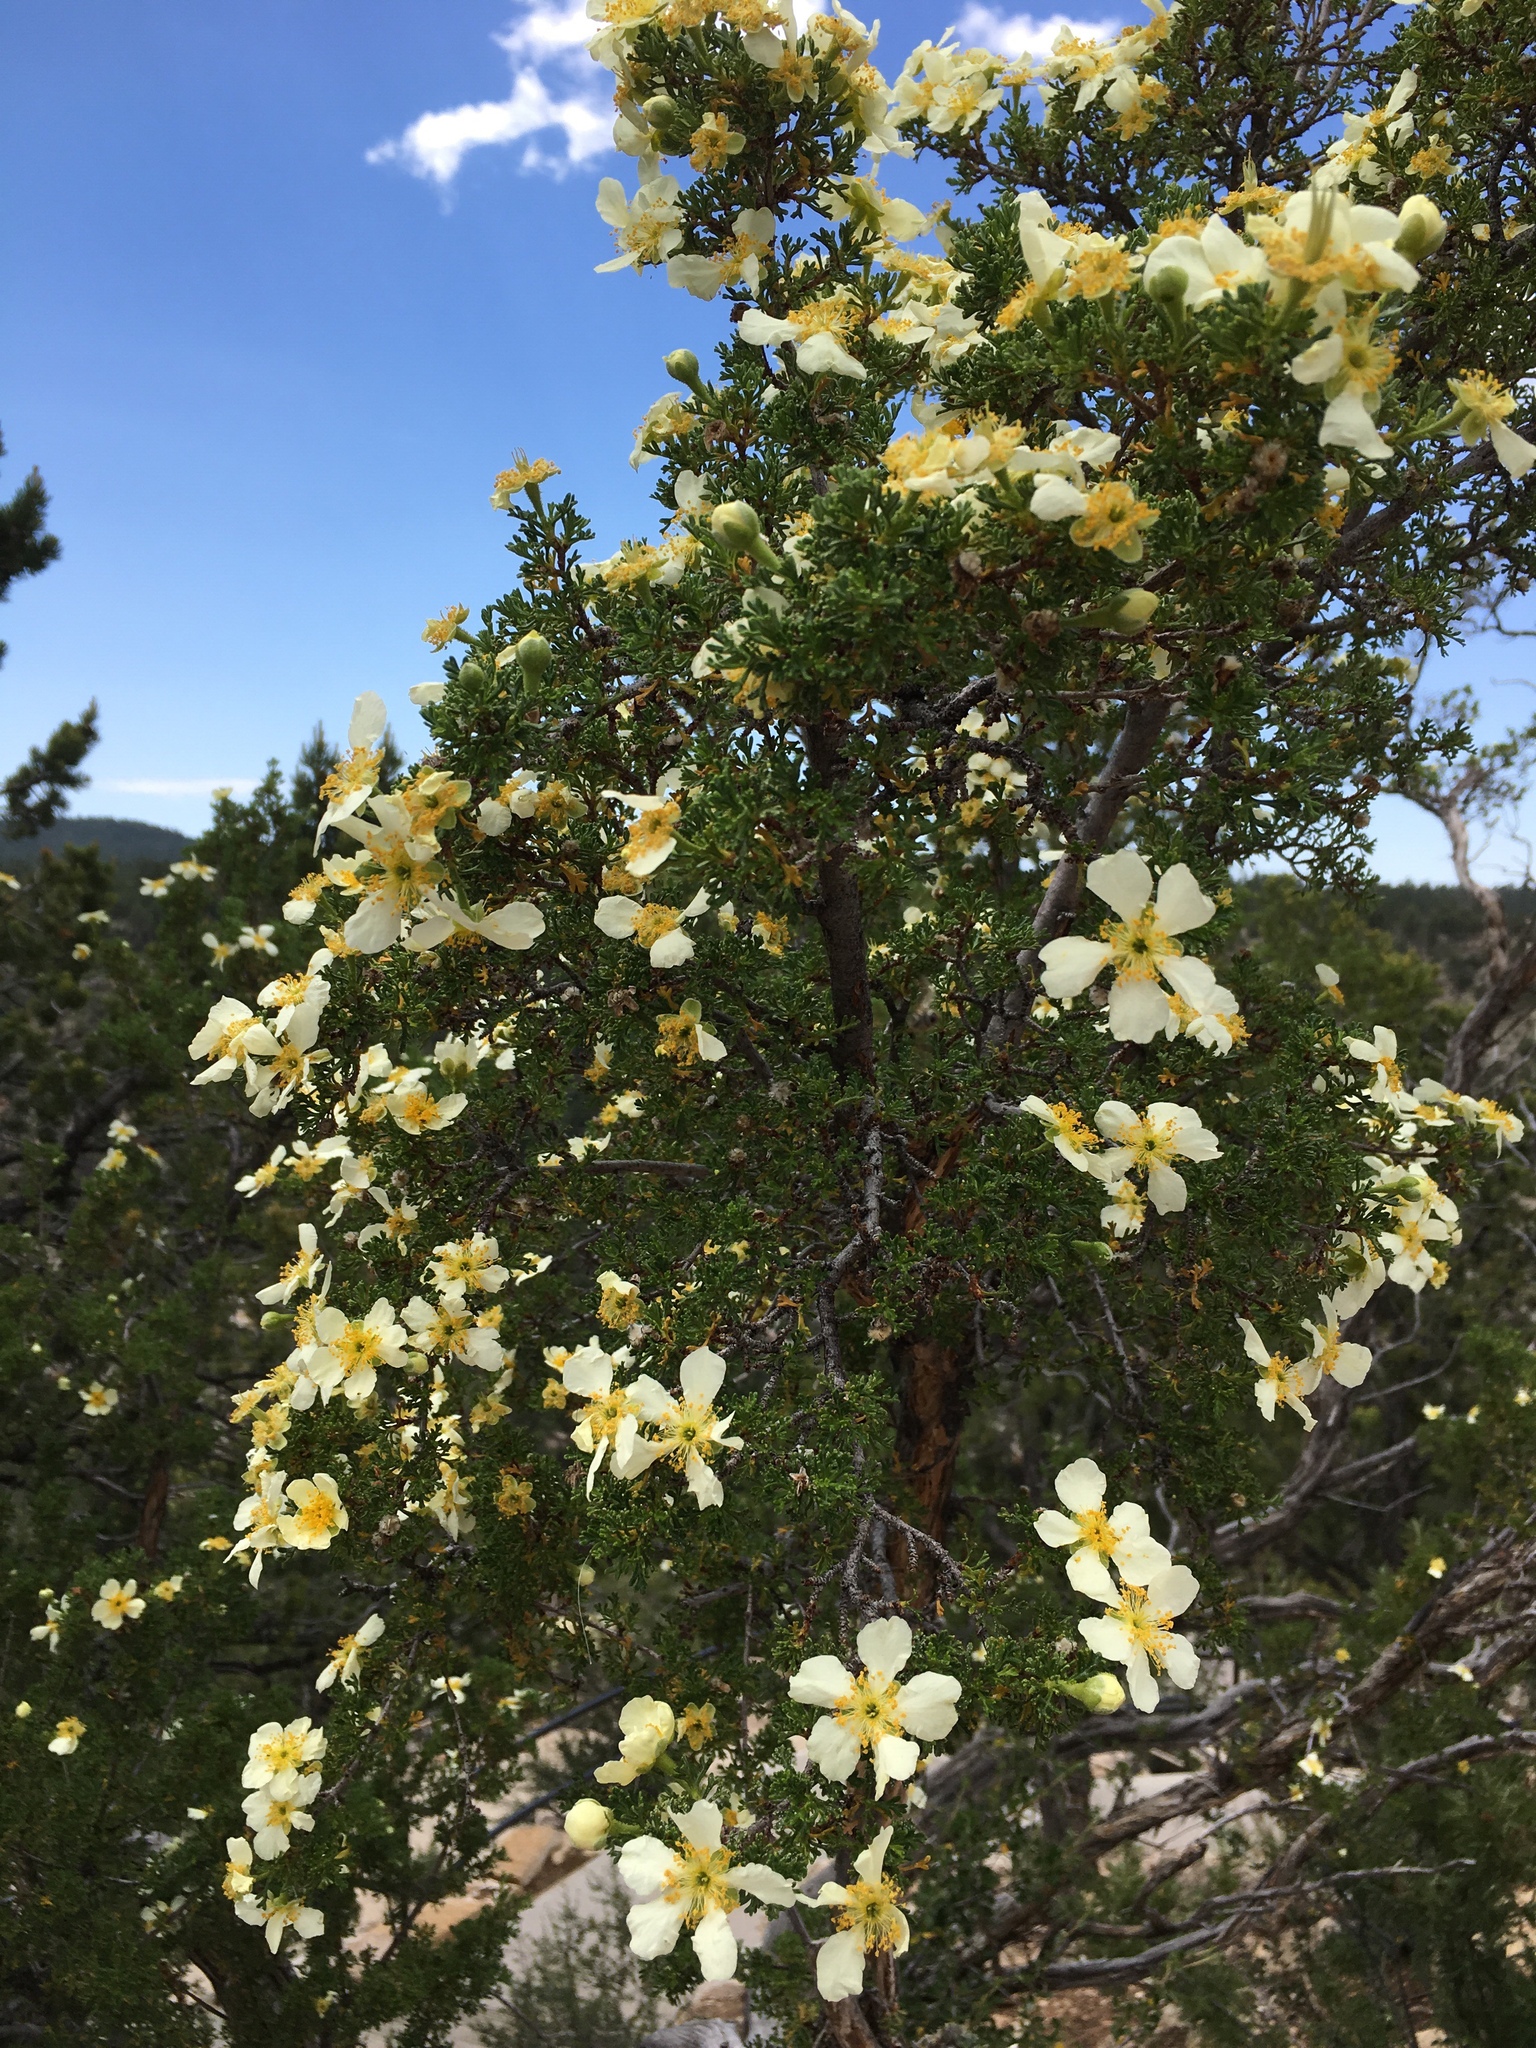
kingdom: Plantae
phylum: Tracheophyta
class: Magnoliopsida
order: Rosales
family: Rosaceae
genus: Purshia
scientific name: Purshia stansburiana
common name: Stansbury's cliffrose
